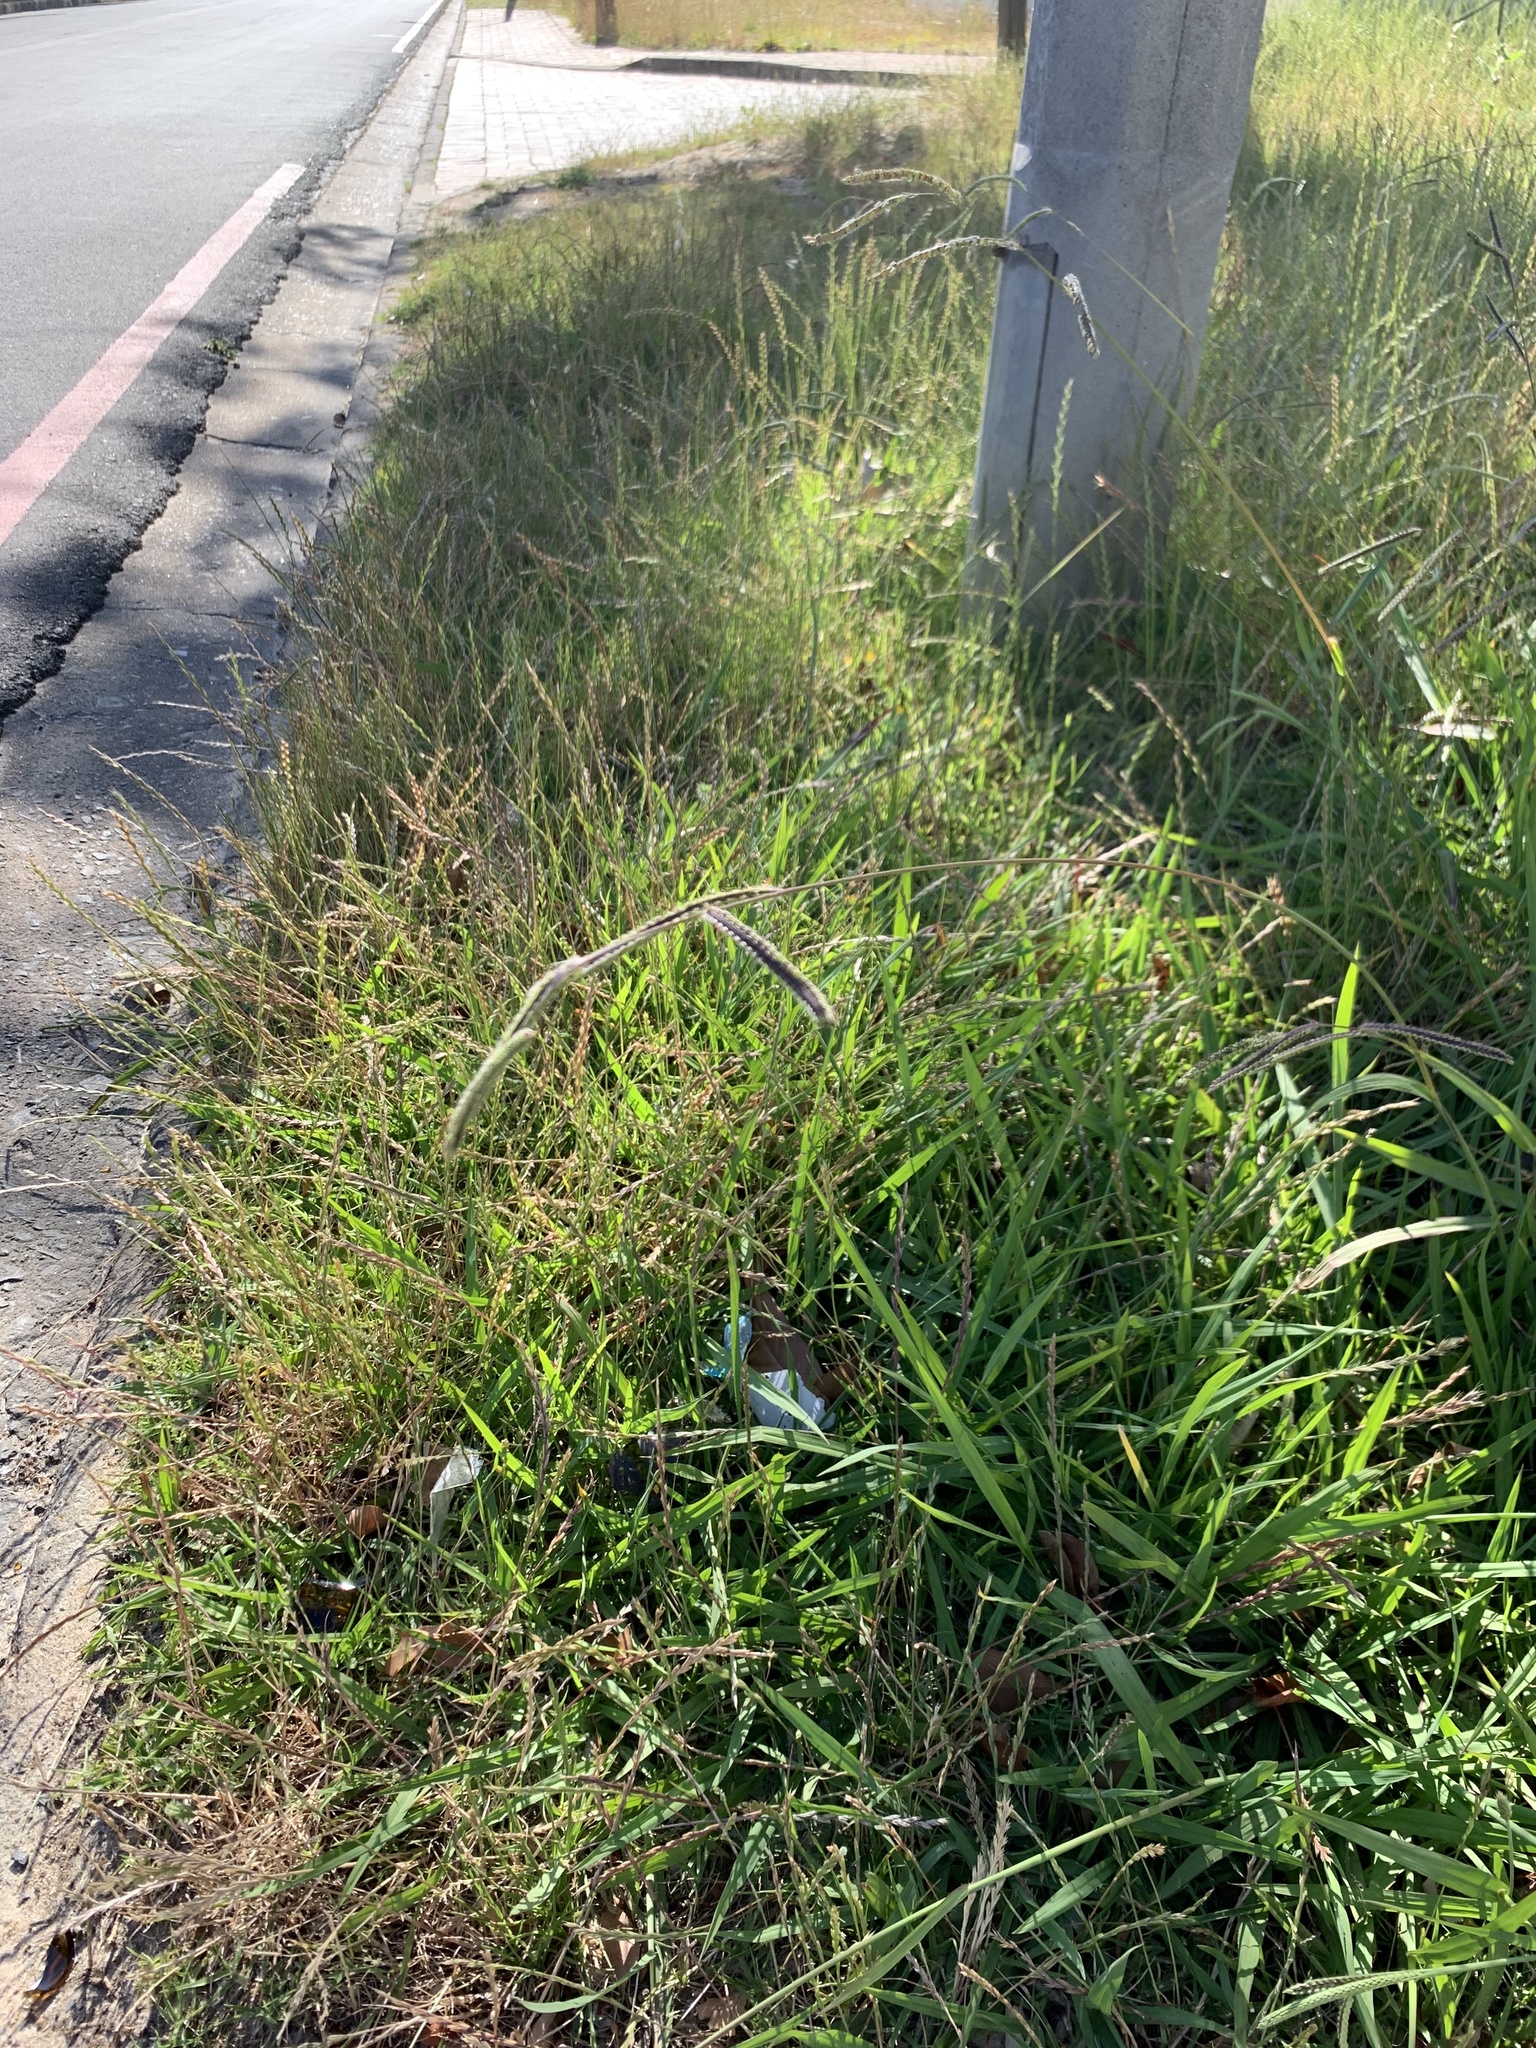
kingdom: Plantae
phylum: Tracheophyta
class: Liliopsida
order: Poales
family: Poaceae
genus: Paspalum
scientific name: Paspalum dilatatum
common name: Dallisgrass
